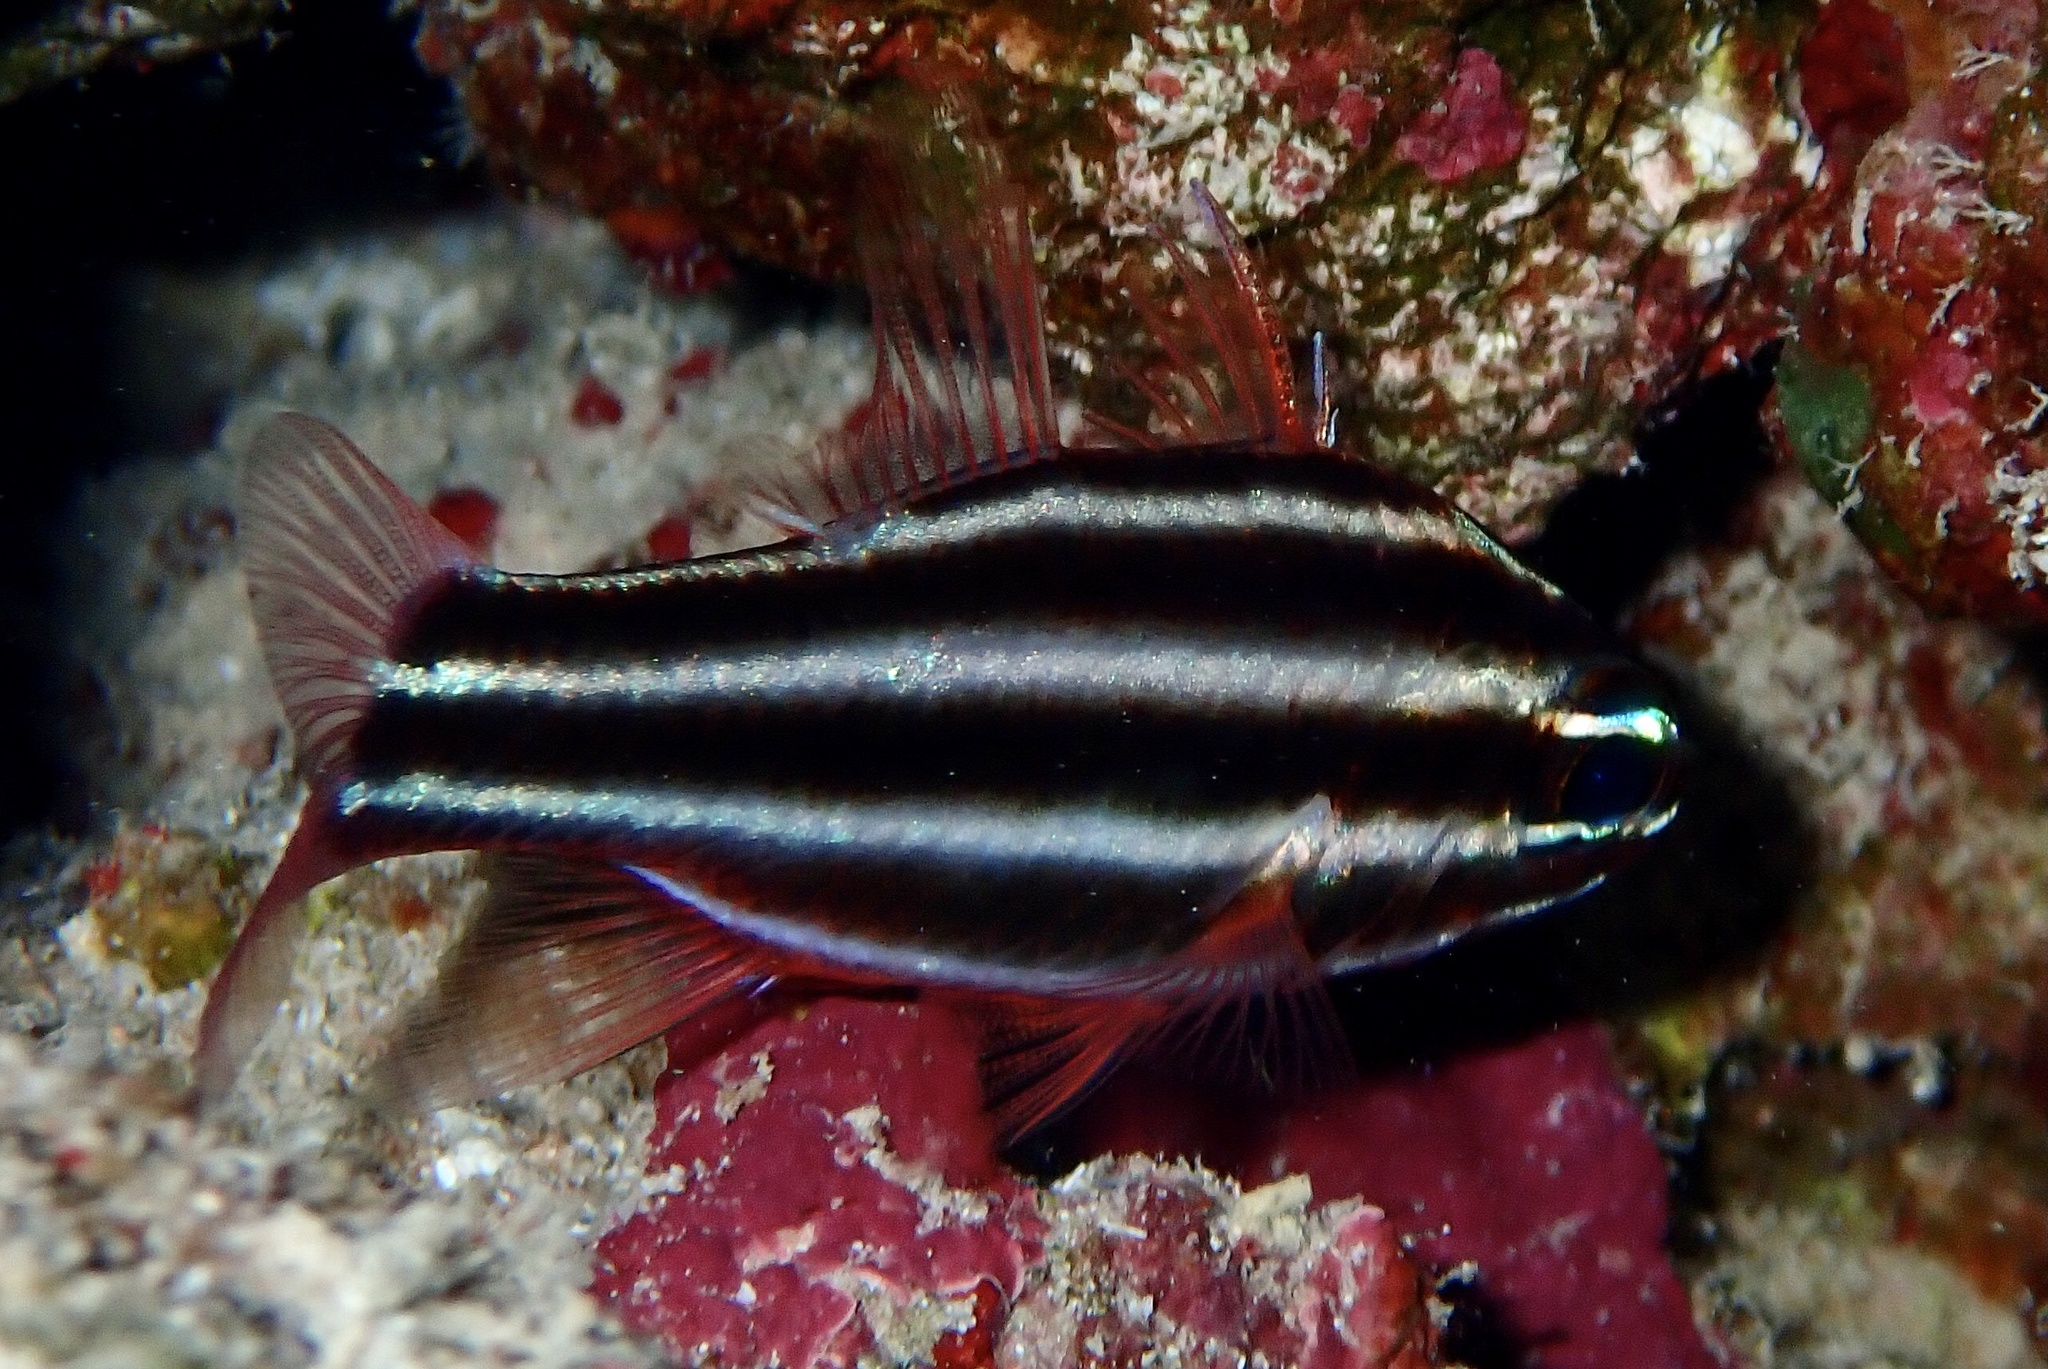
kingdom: Animalia
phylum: Chordata
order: Perciformes
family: Apogonidae
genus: Ostorhinchus
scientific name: Ostorhinchus nigrofasciatus
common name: Blackstripe cardinalfish
